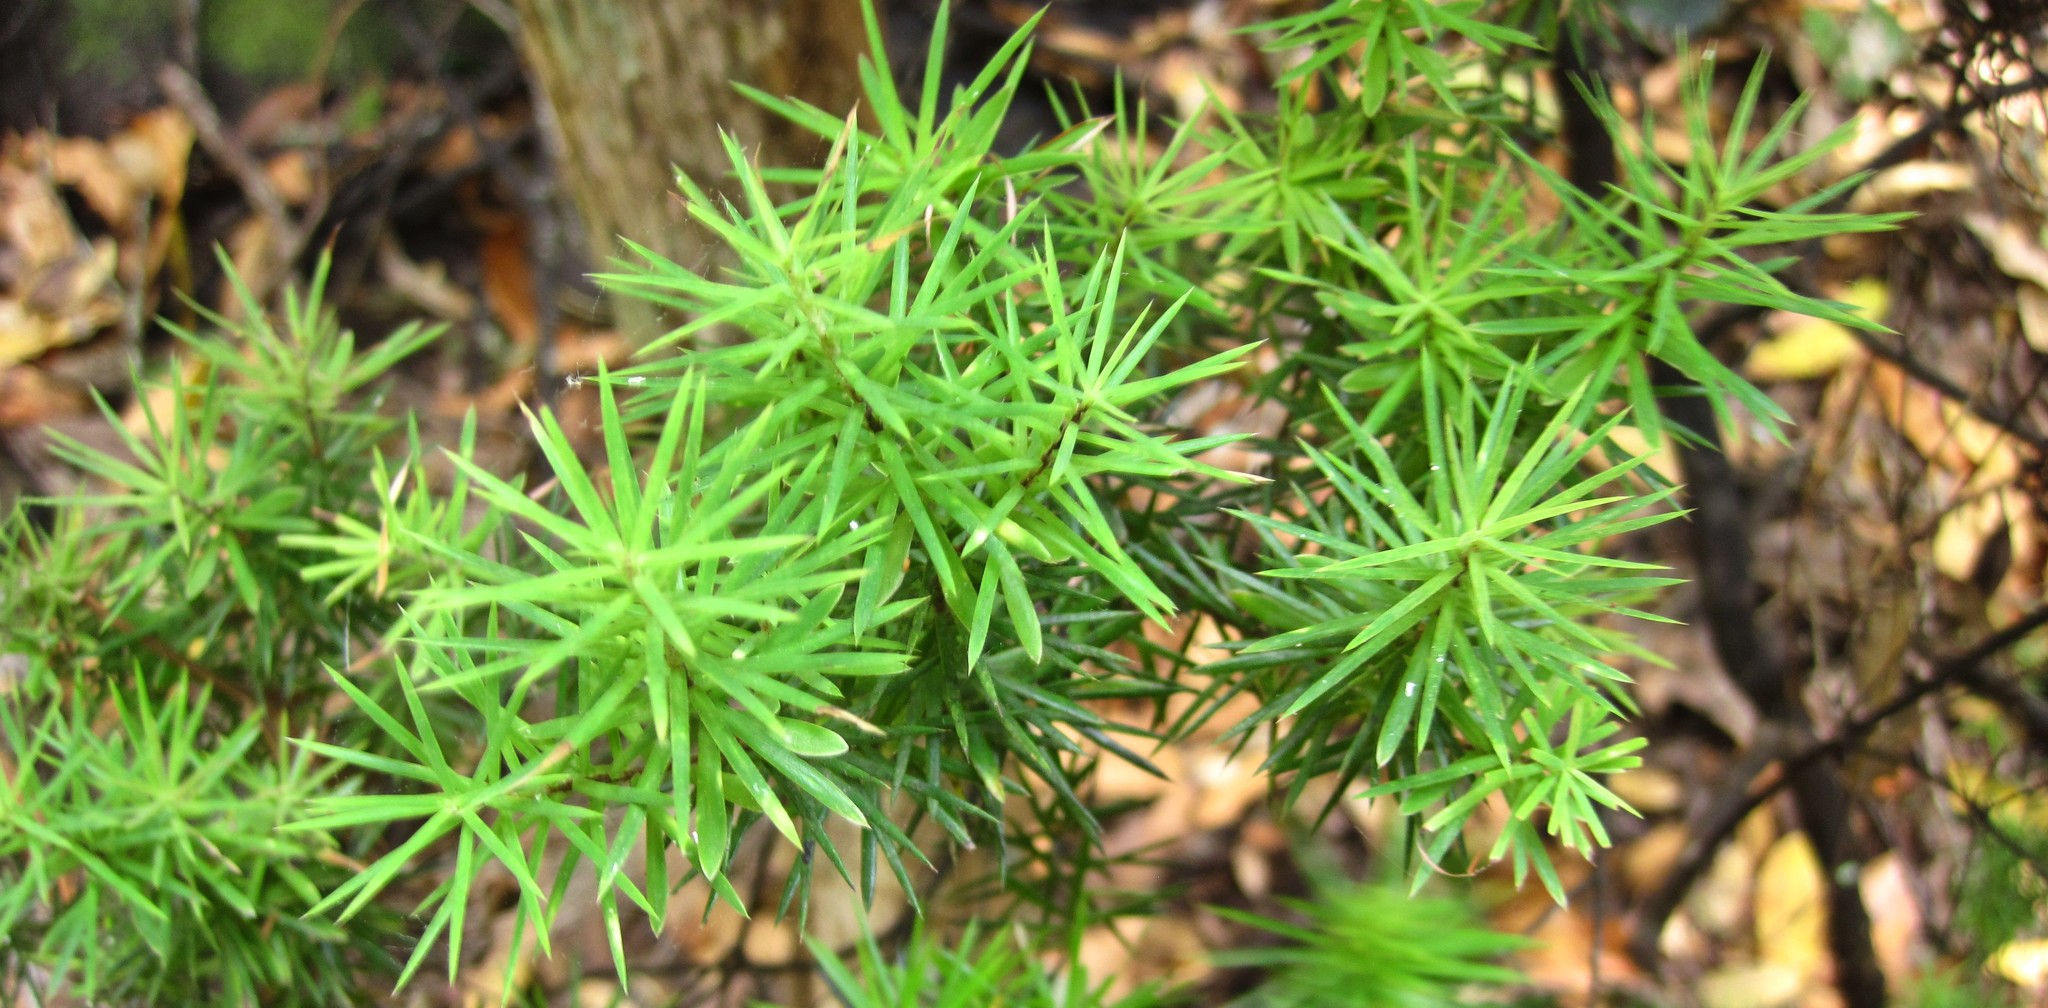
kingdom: Plantae
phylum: Tracheophyta
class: Magnoliopsida
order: Ericales
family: Ericaceae
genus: Leptecophylla
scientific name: Leptecophylla juniperina
